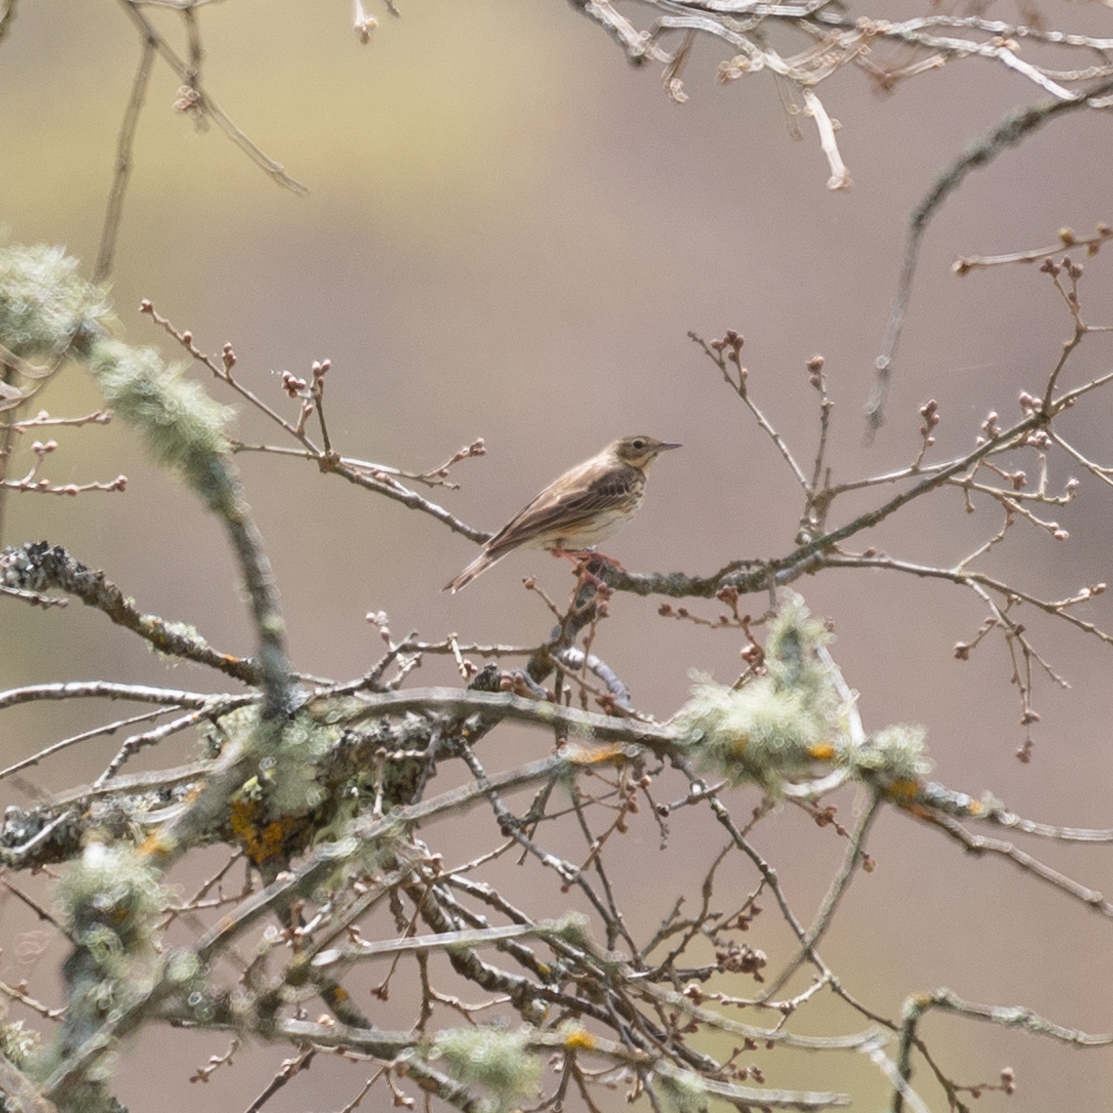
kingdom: Animalia
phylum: Chordata
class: Aves
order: Passeriformes
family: Motacillidae
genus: Anthus
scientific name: Anthus trivialis
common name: Tree pipit
